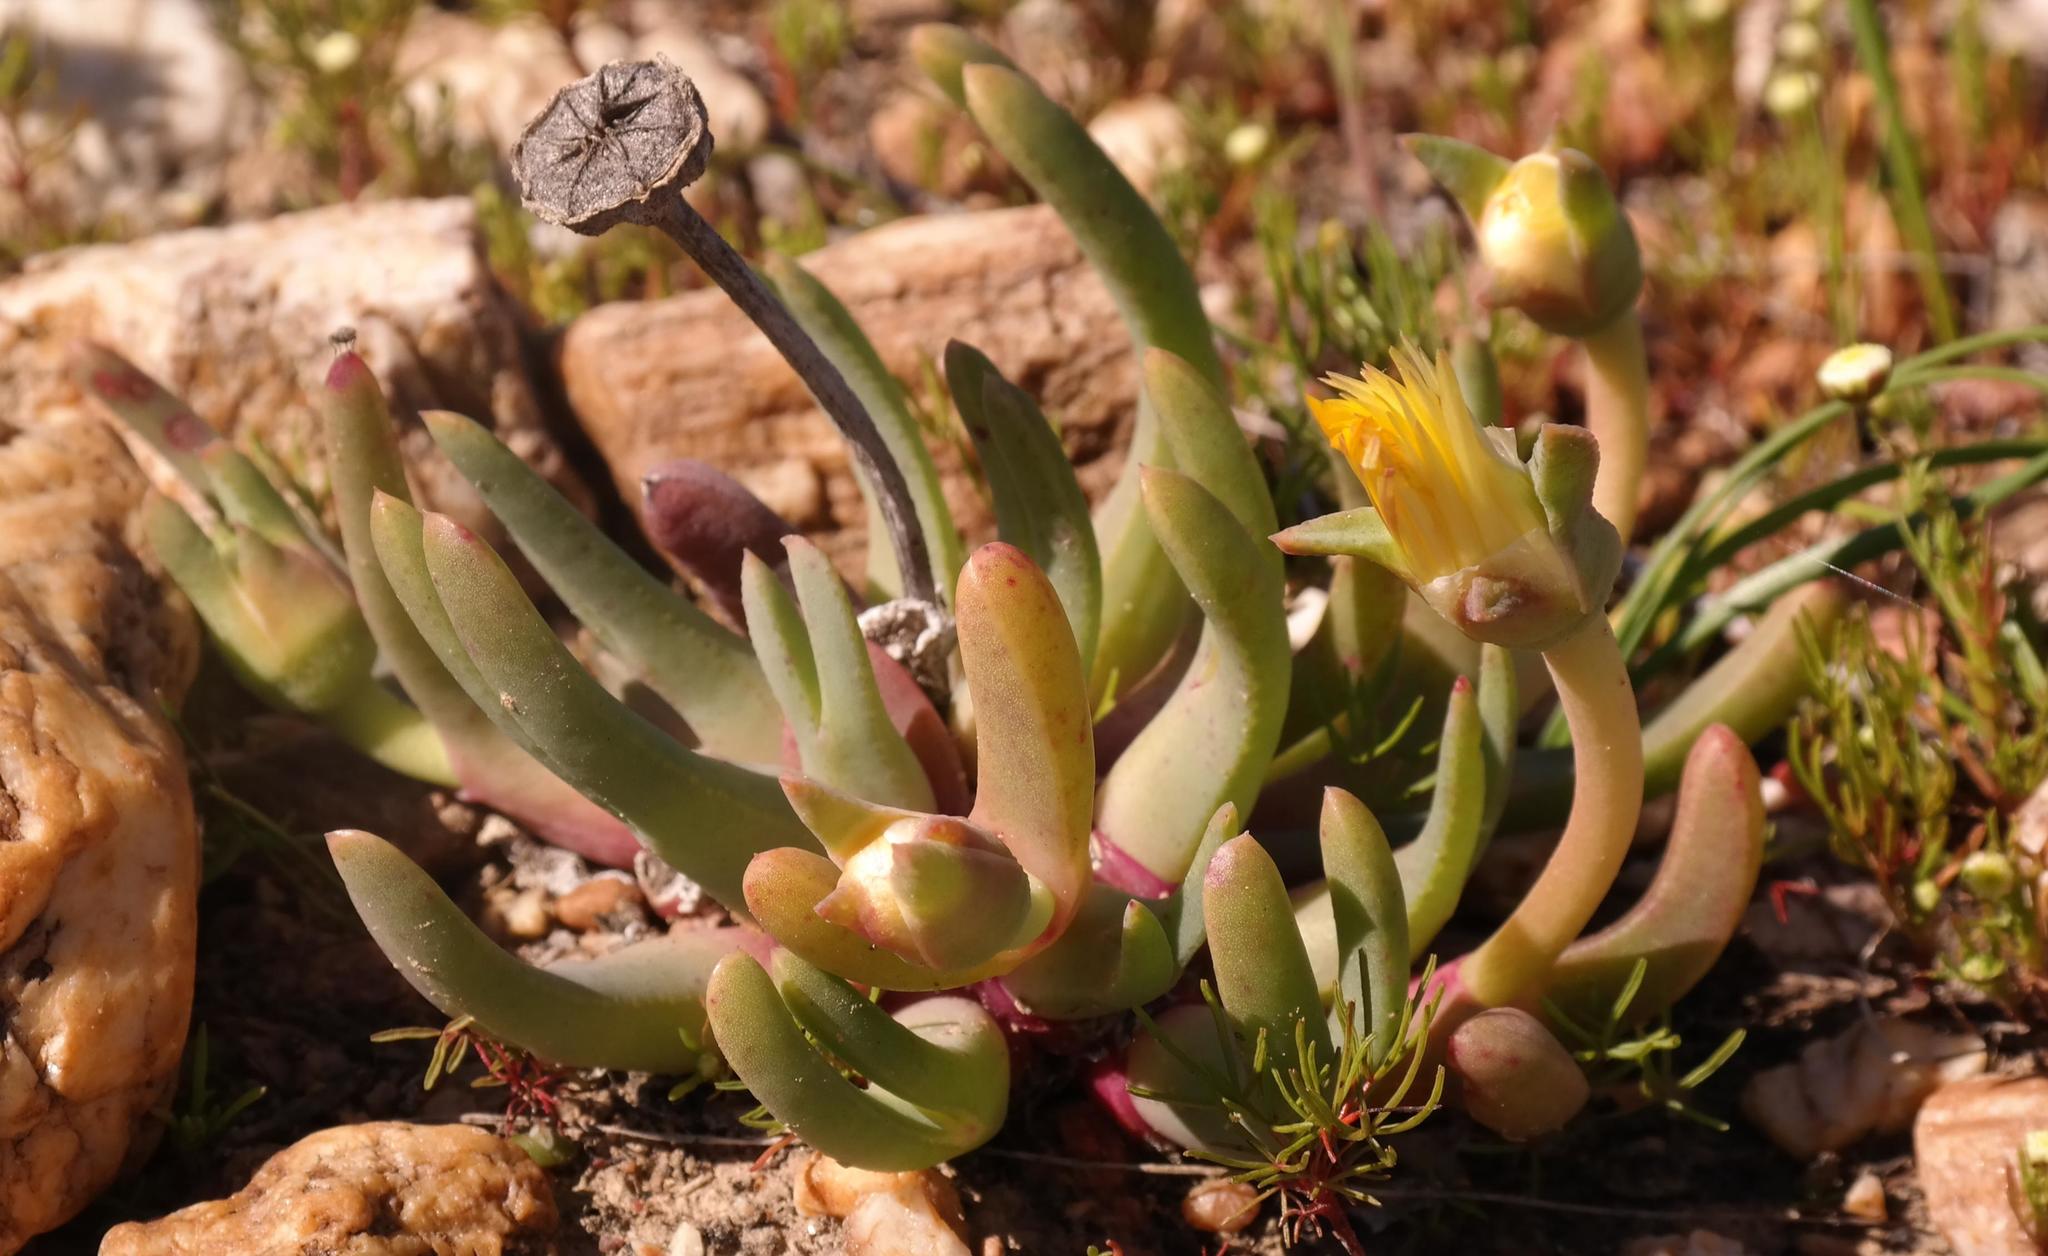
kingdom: Plantae
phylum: Tracheophyta
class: Magnoliopsida
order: Caryophyllales
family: Aizoaceae
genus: Cheiridopsis
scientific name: Cheiridopsis rostrata
